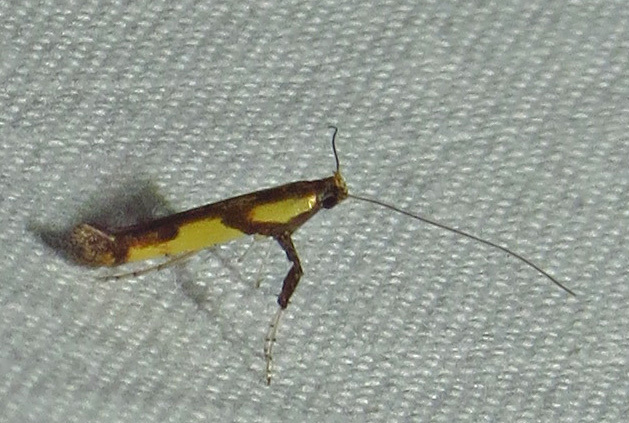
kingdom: Animalia
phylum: Arthropoda
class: Insecta
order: Lepidoptera
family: Gracillariidae
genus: Caloptilia
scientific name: Caloptilia blandella
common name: Walnut caloptilia moth
